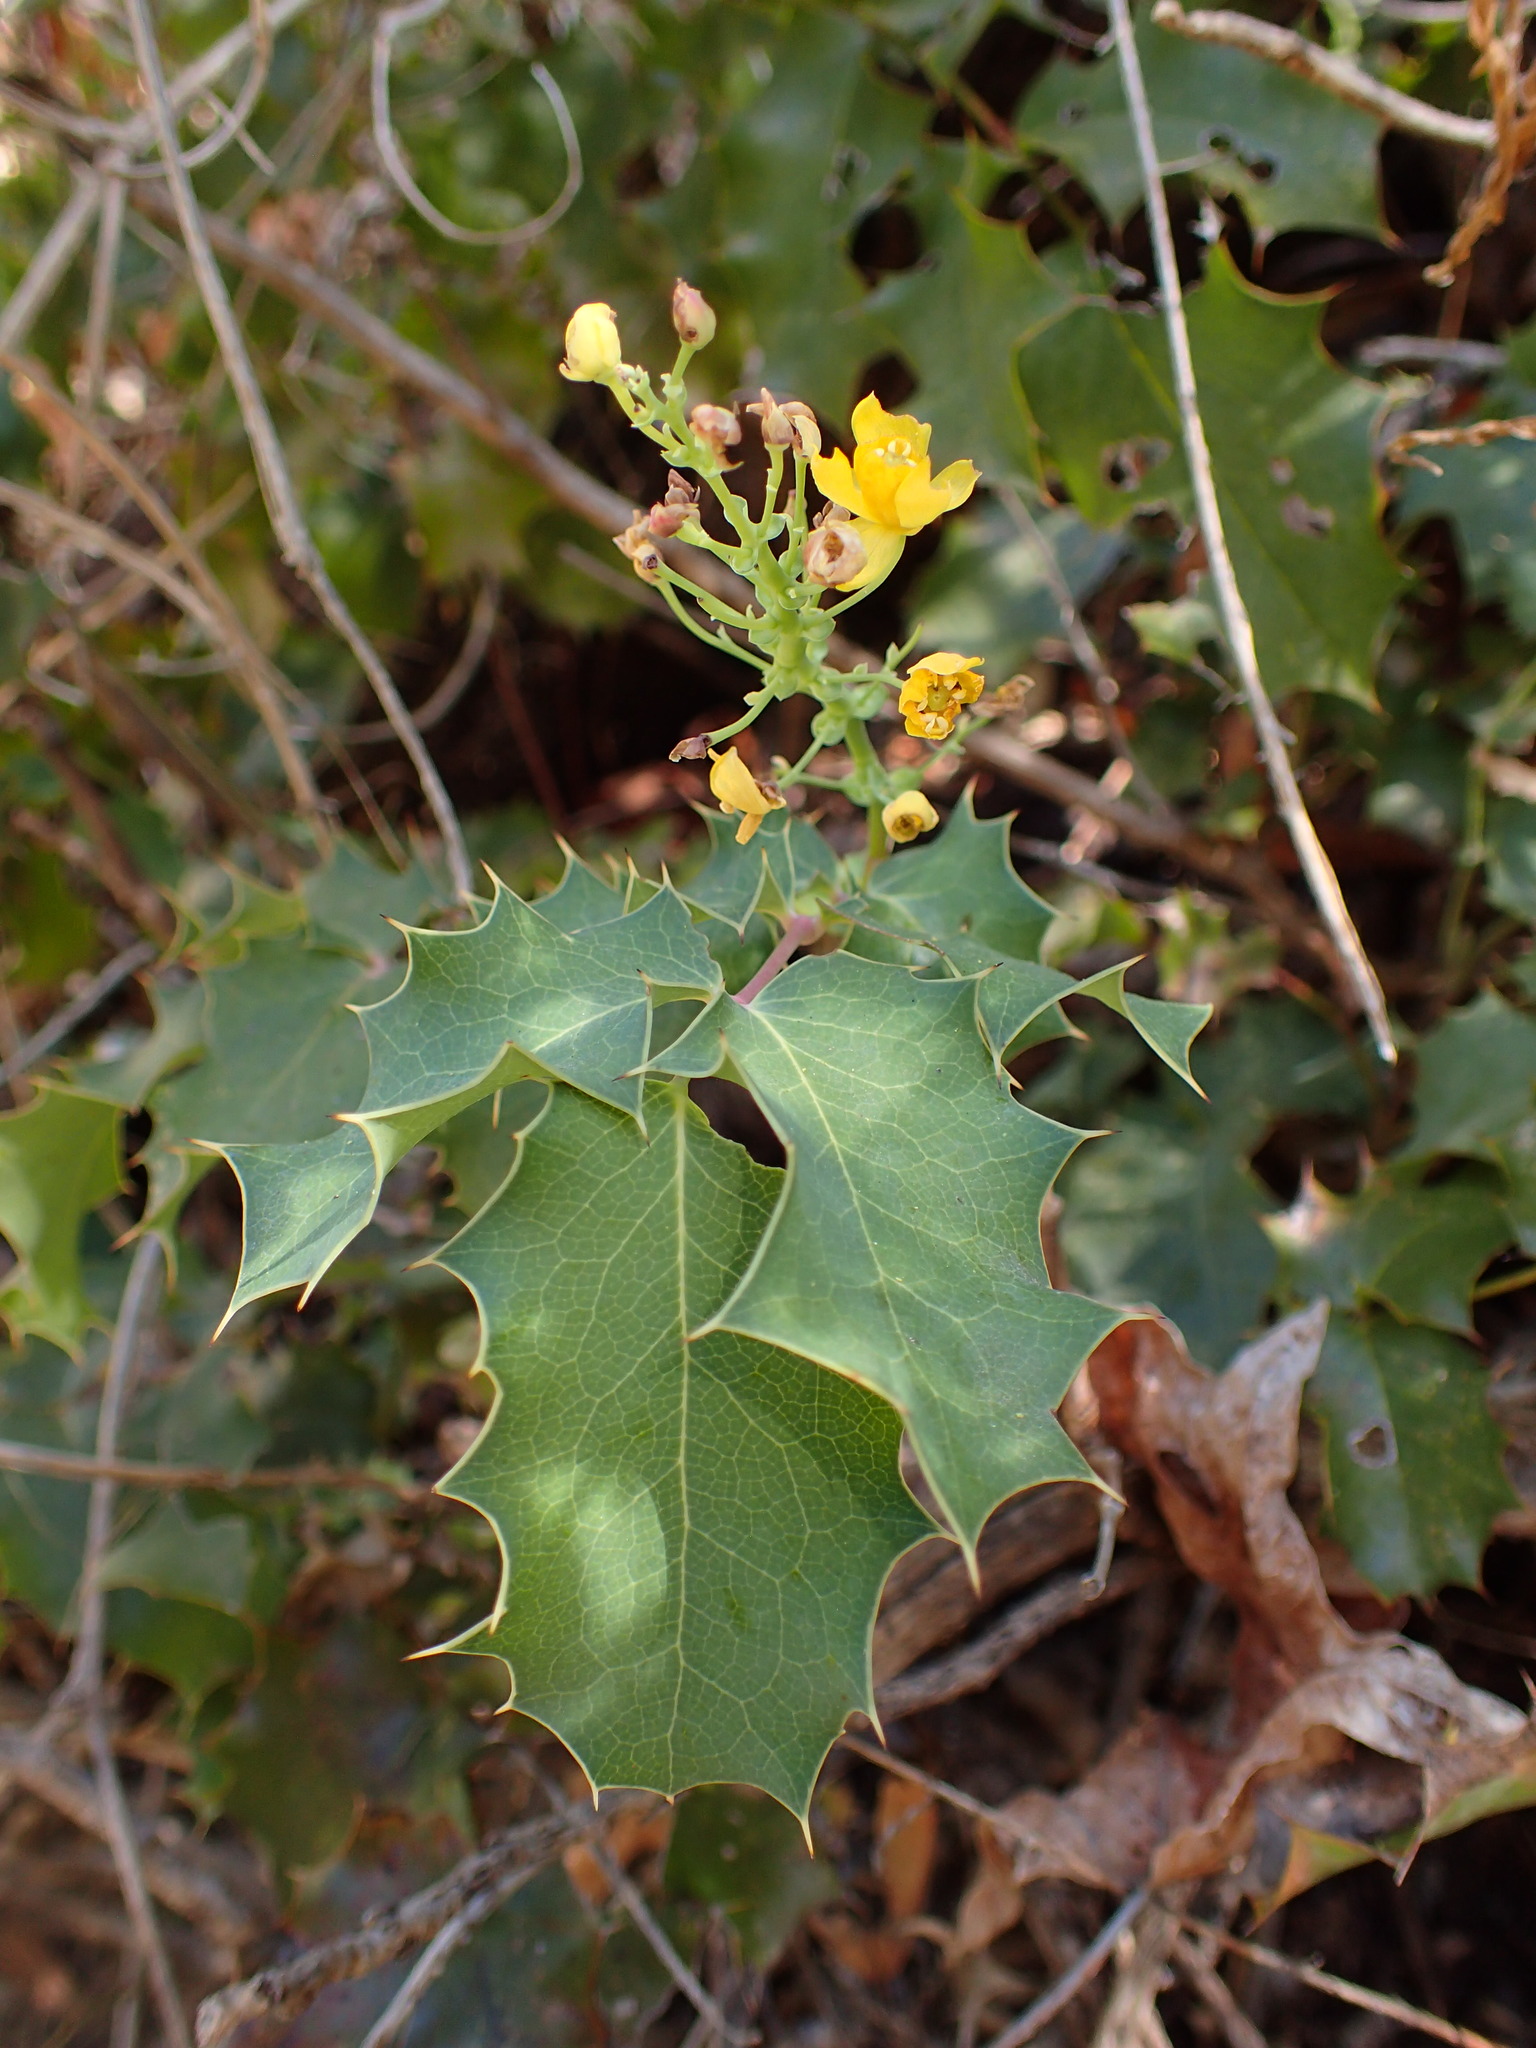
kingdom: Plantae
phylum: Tracheophyta
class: Magnoliopsida
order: Ranunculales
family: Berberidaceae
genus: Mahonia
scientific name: Mahonia dictyota
